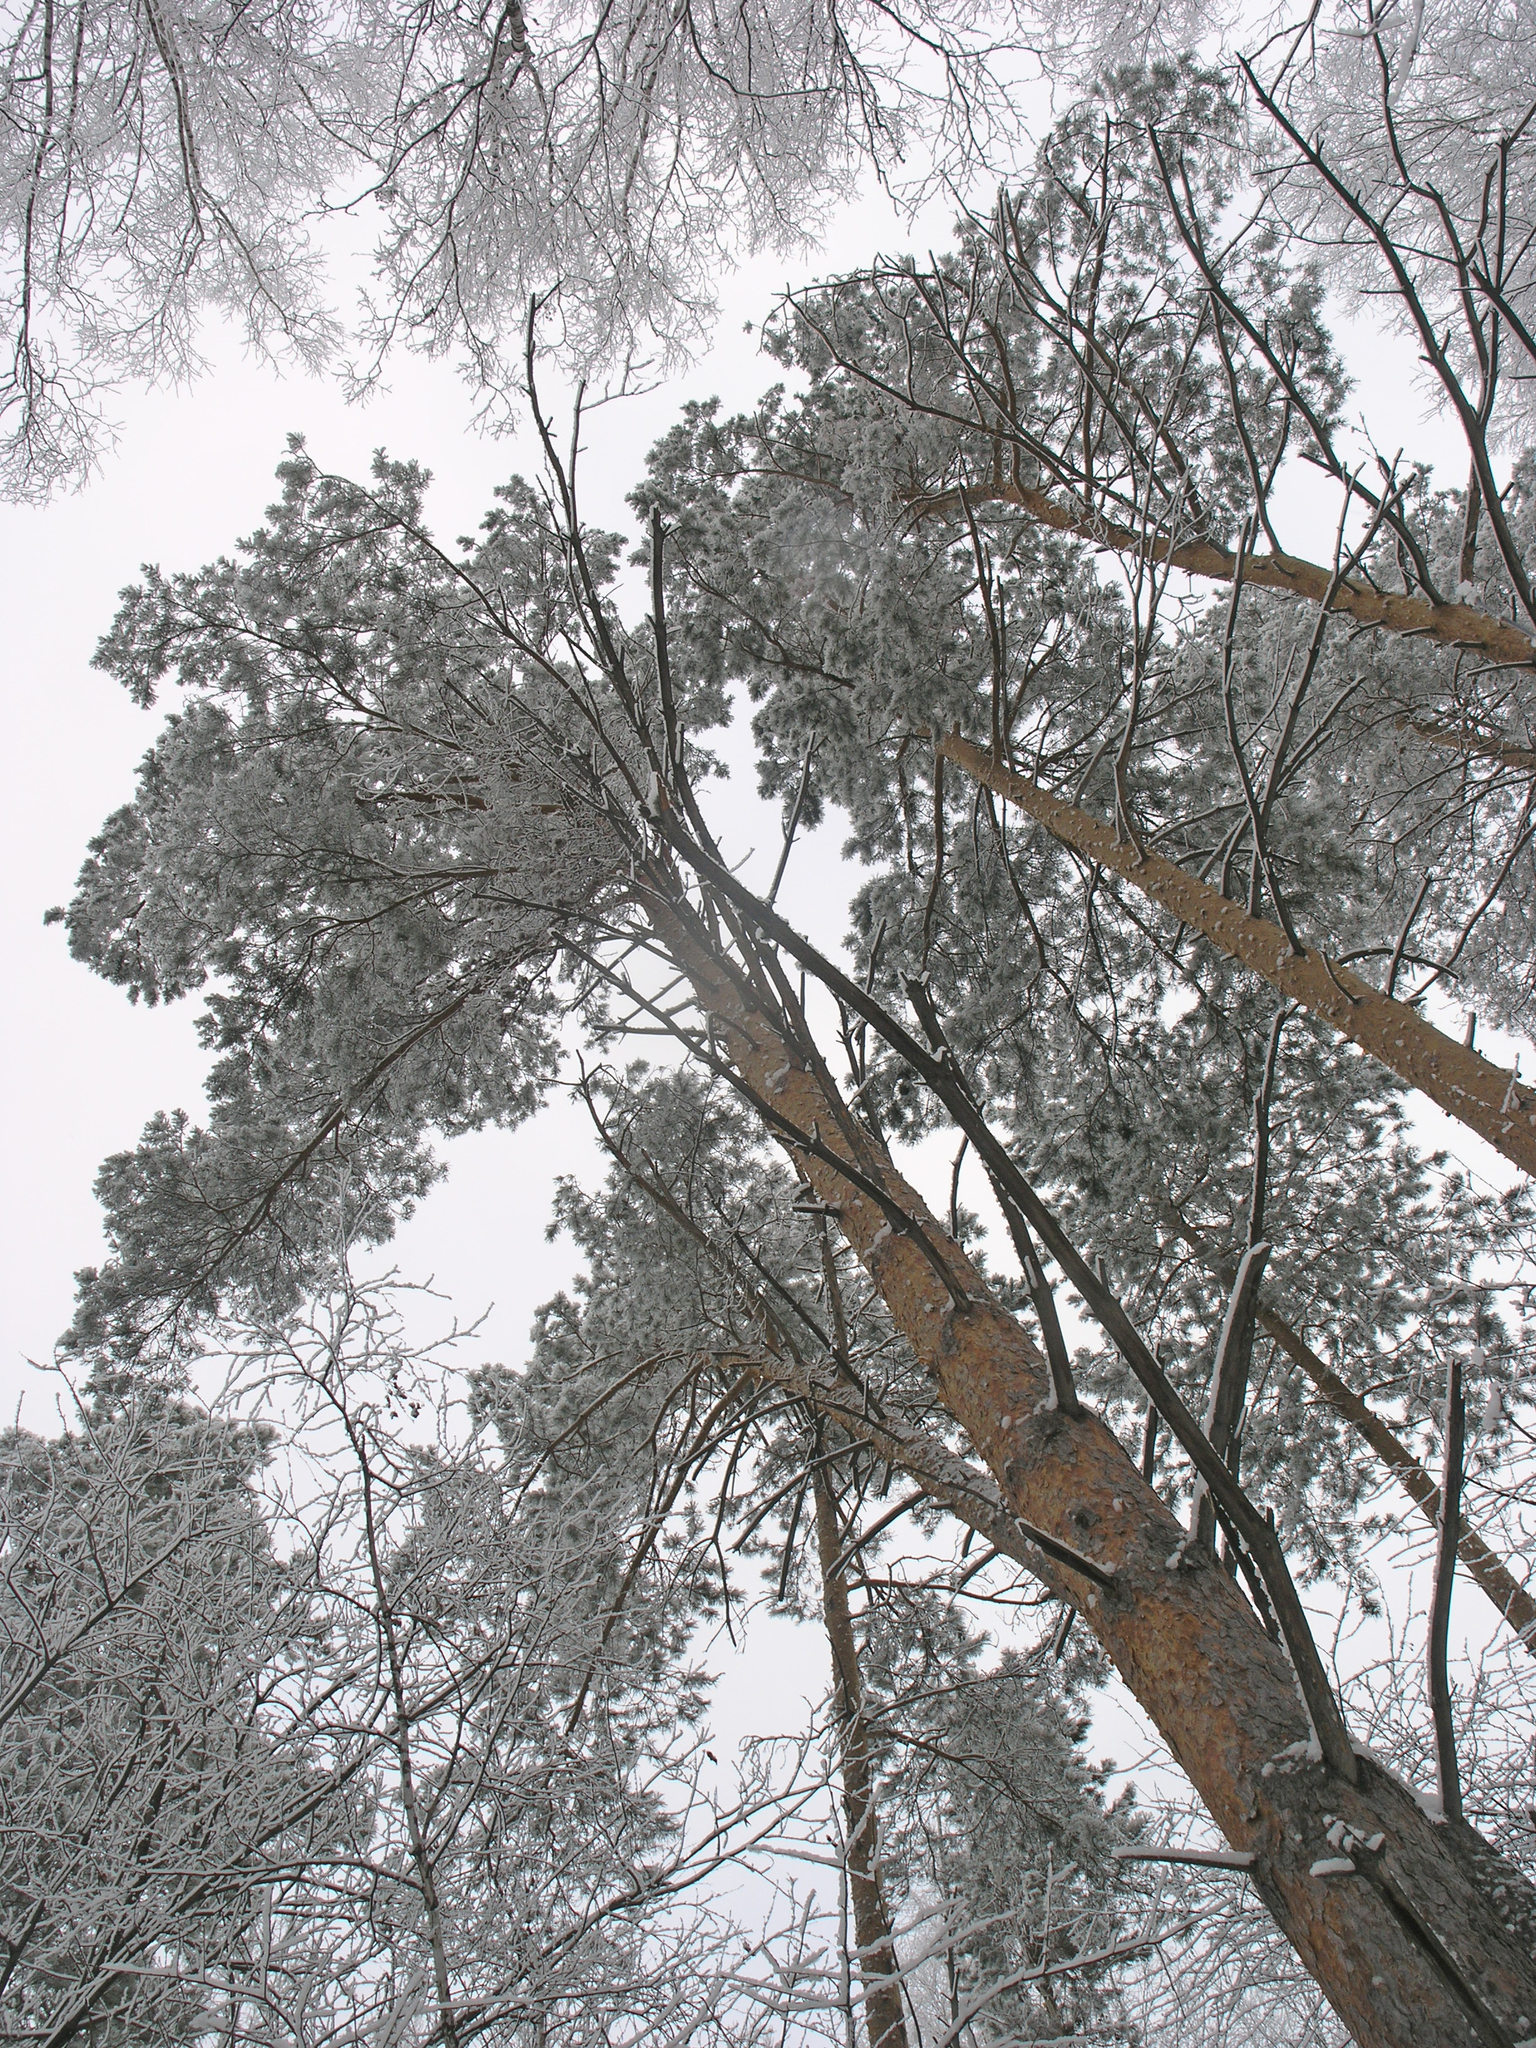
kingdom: Plantae
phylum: Tracheophyta
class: Pinopsida
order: Pinales
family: Pinaceae
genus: Pinus
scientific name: Pinus sylvestris
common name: Scots pine
